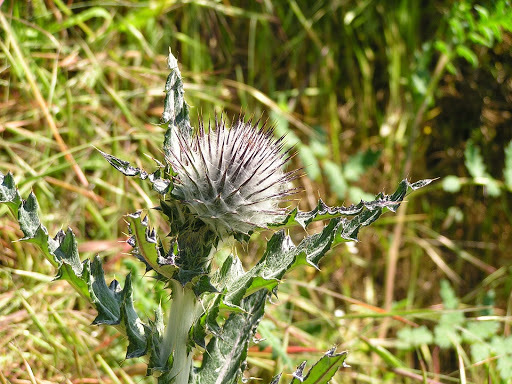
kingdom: Plantae
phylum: Tracheophyta
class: Magnoliopsida
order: Asterales
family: Asteraceae
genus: Cirsium
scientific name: Cirsium occidentale
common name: Western thistle
